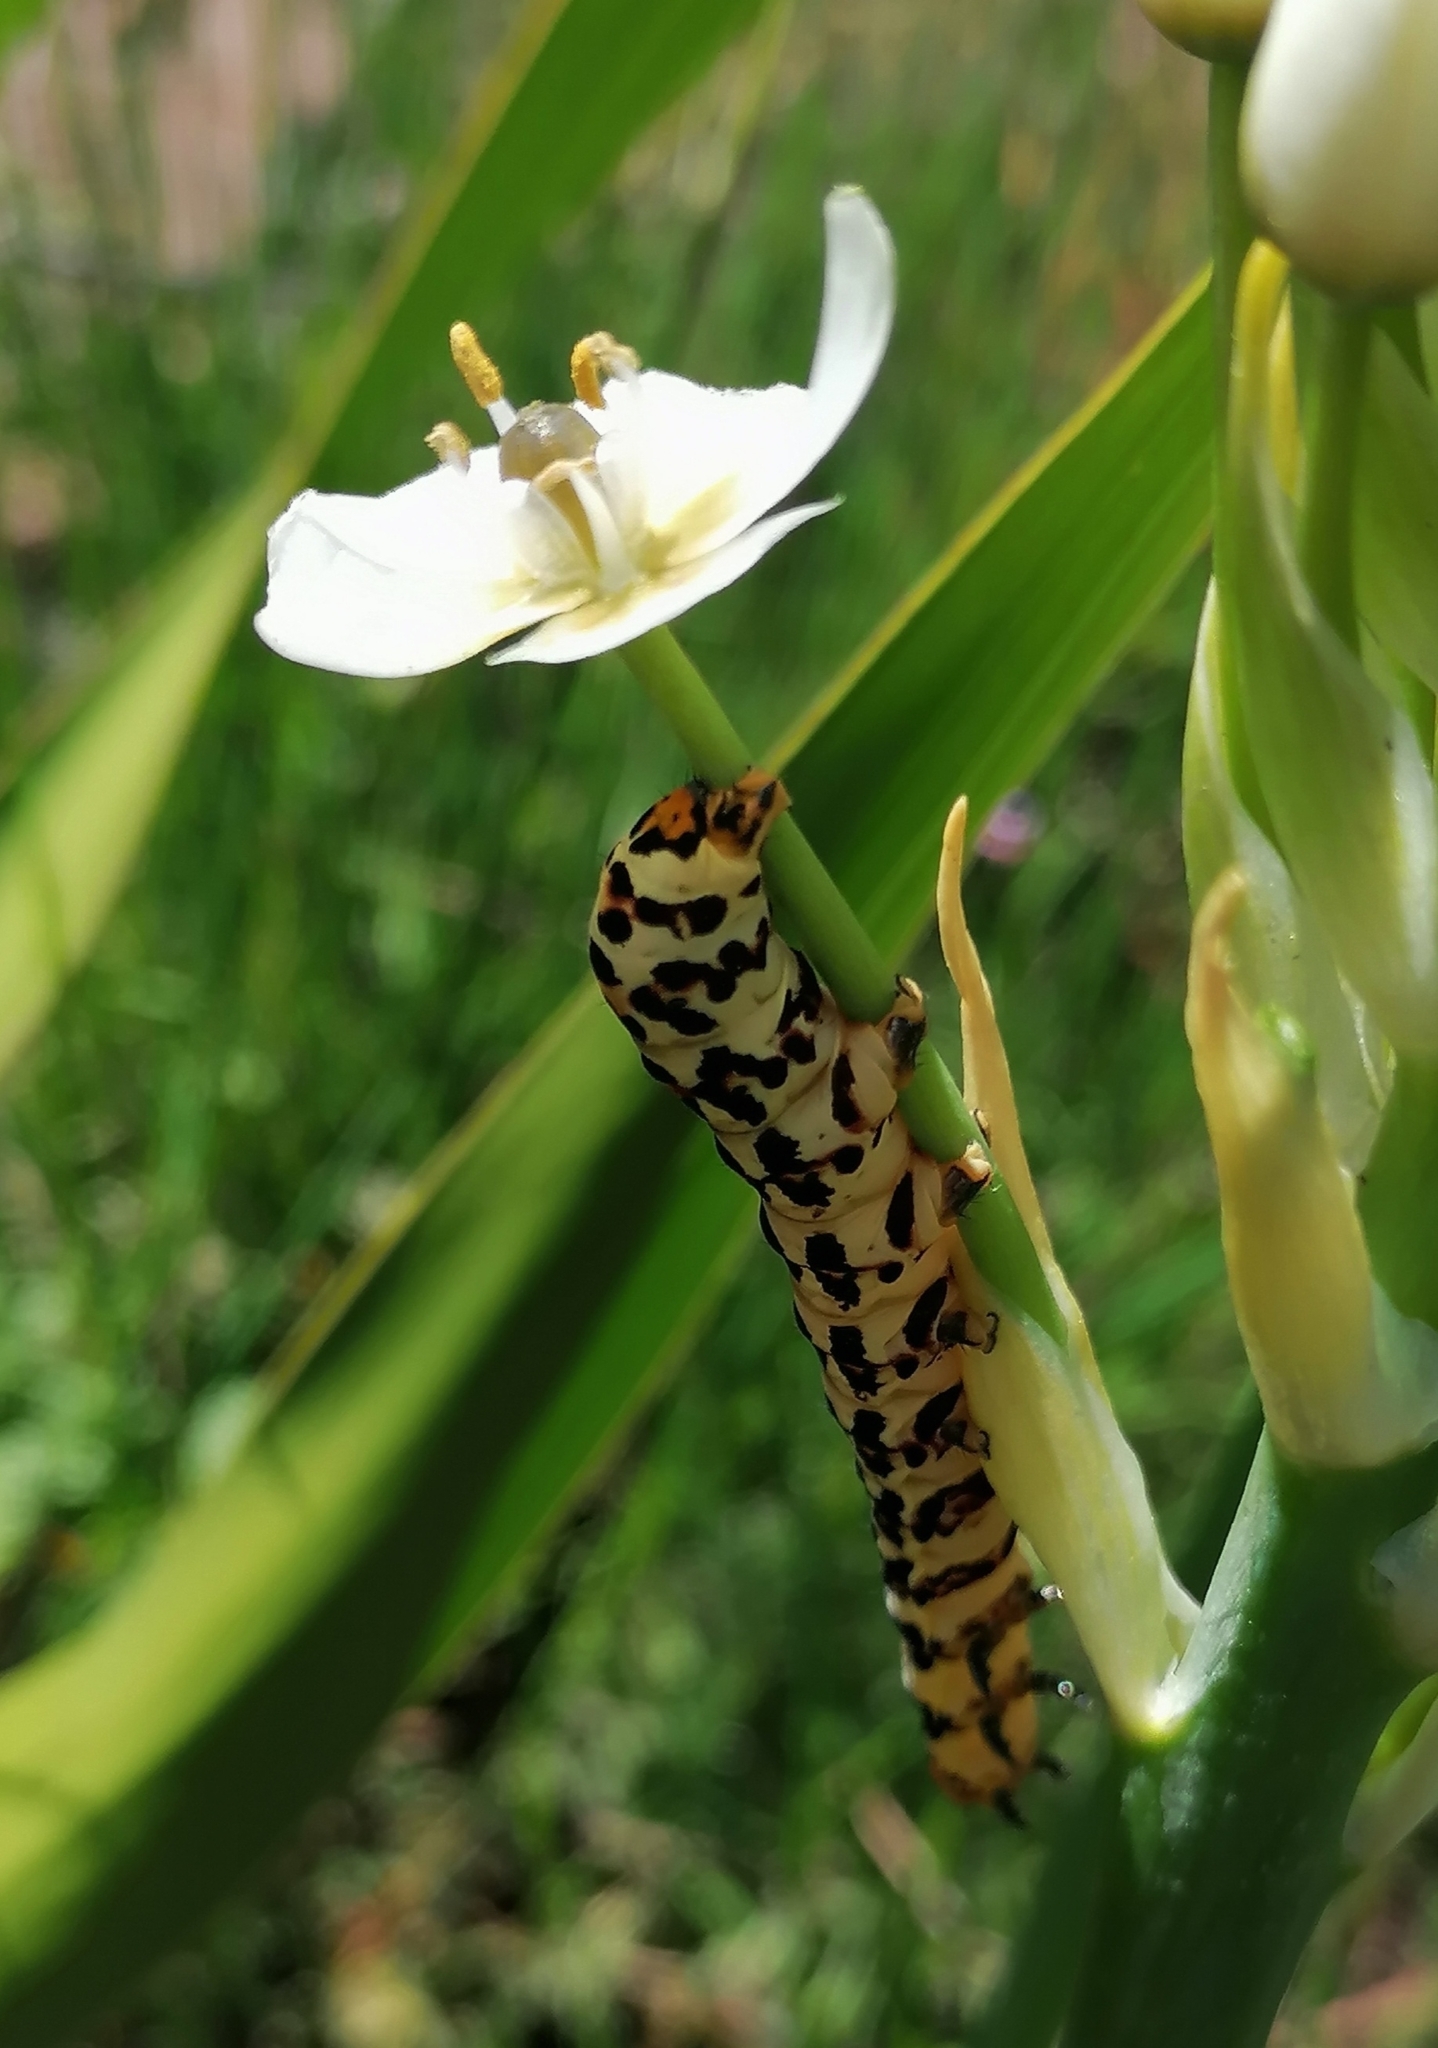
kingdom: Animalia
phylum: Arthropoda
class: Insecta
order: Lepidoptera
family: Noctuidae
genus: Diaphone
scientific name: Diaphone eumela
